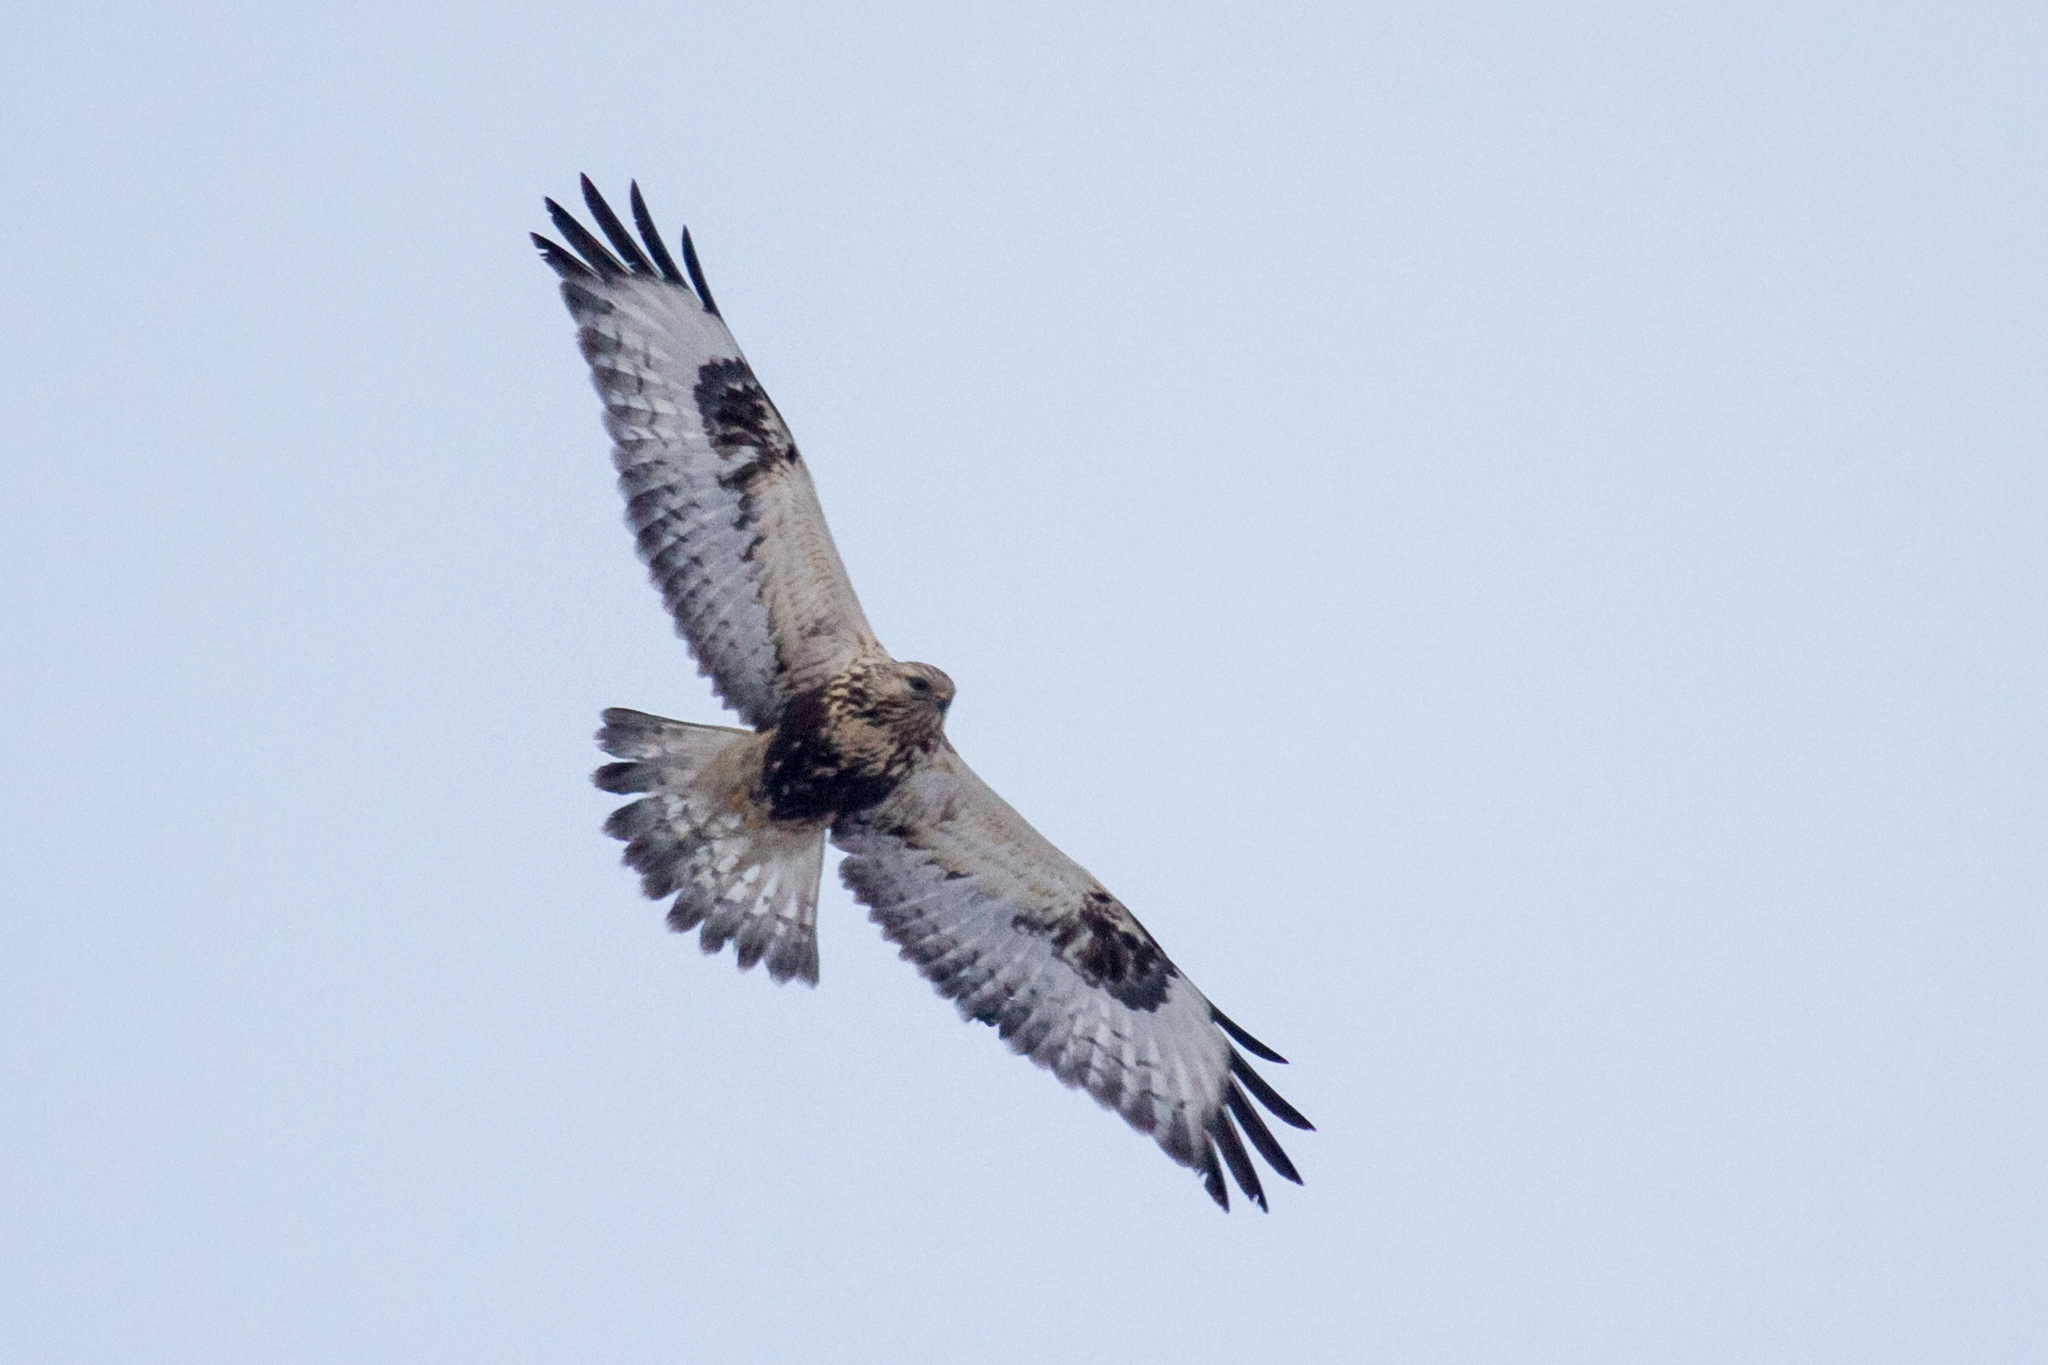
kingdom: Animalia
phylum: Chordata
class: Aves
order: Accipitriformes
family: Accipitridae
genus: Buteo
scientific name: Buteo lagopus
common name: Rough-legged buzzard
